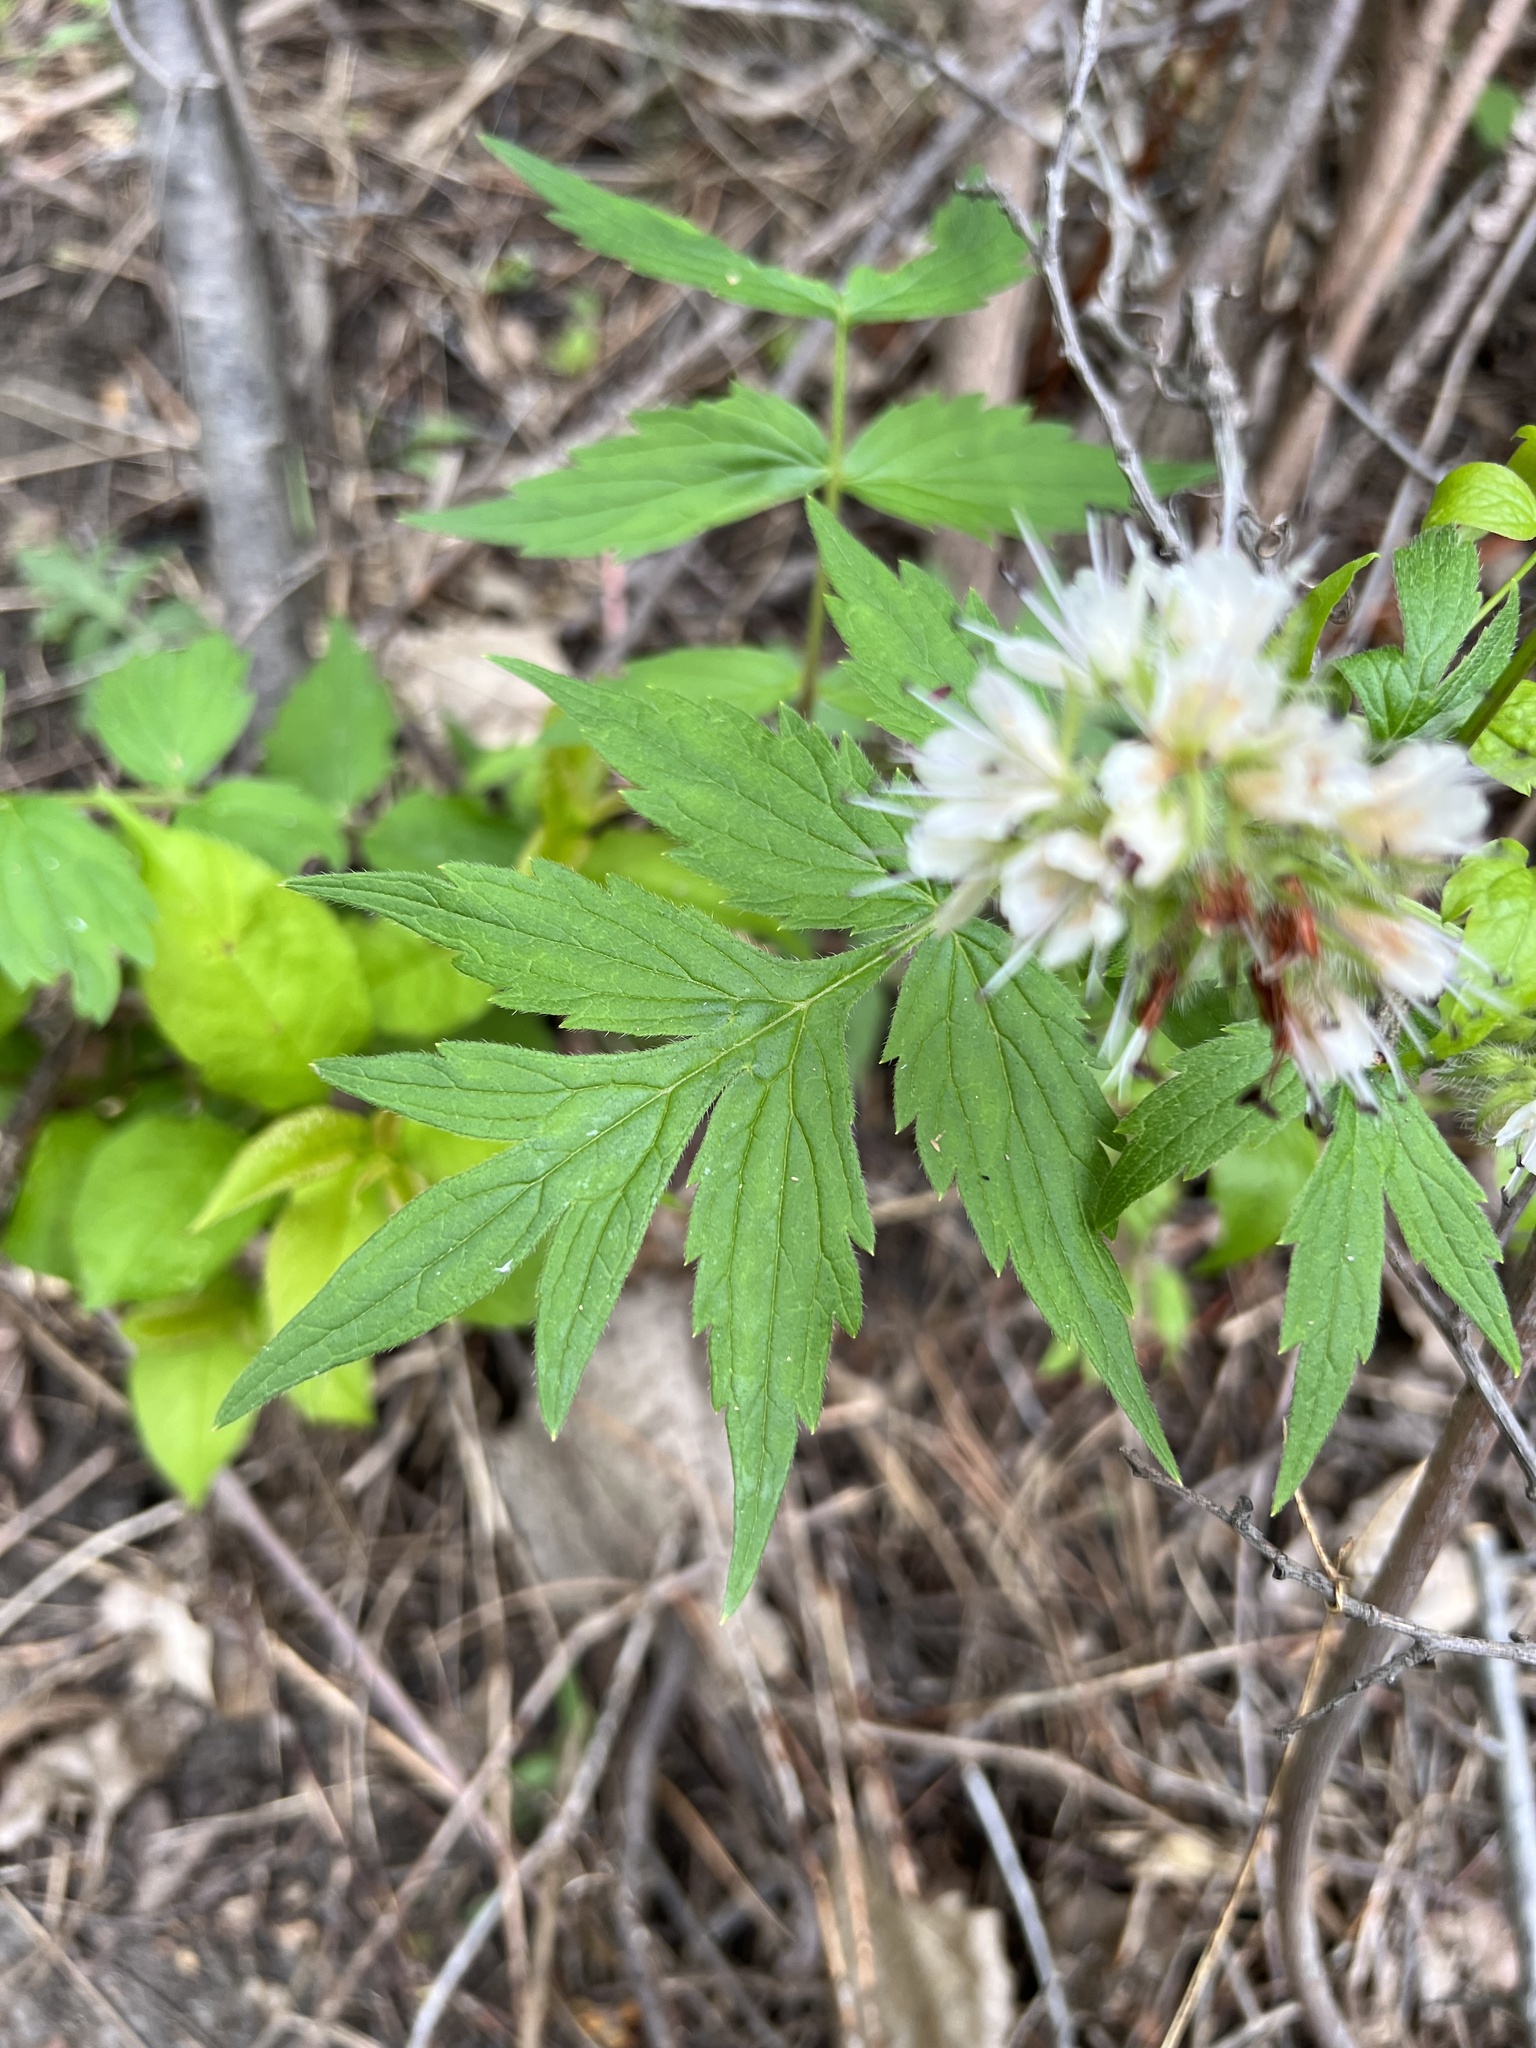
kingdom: Plantae
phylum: Tracheophyta
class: Magnoliopsida
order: Boraginales
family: Hydrophyllaceae
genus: Hydrophyllum
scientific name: Hydrophyllum fendleri
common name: Fendler's waterleaf
